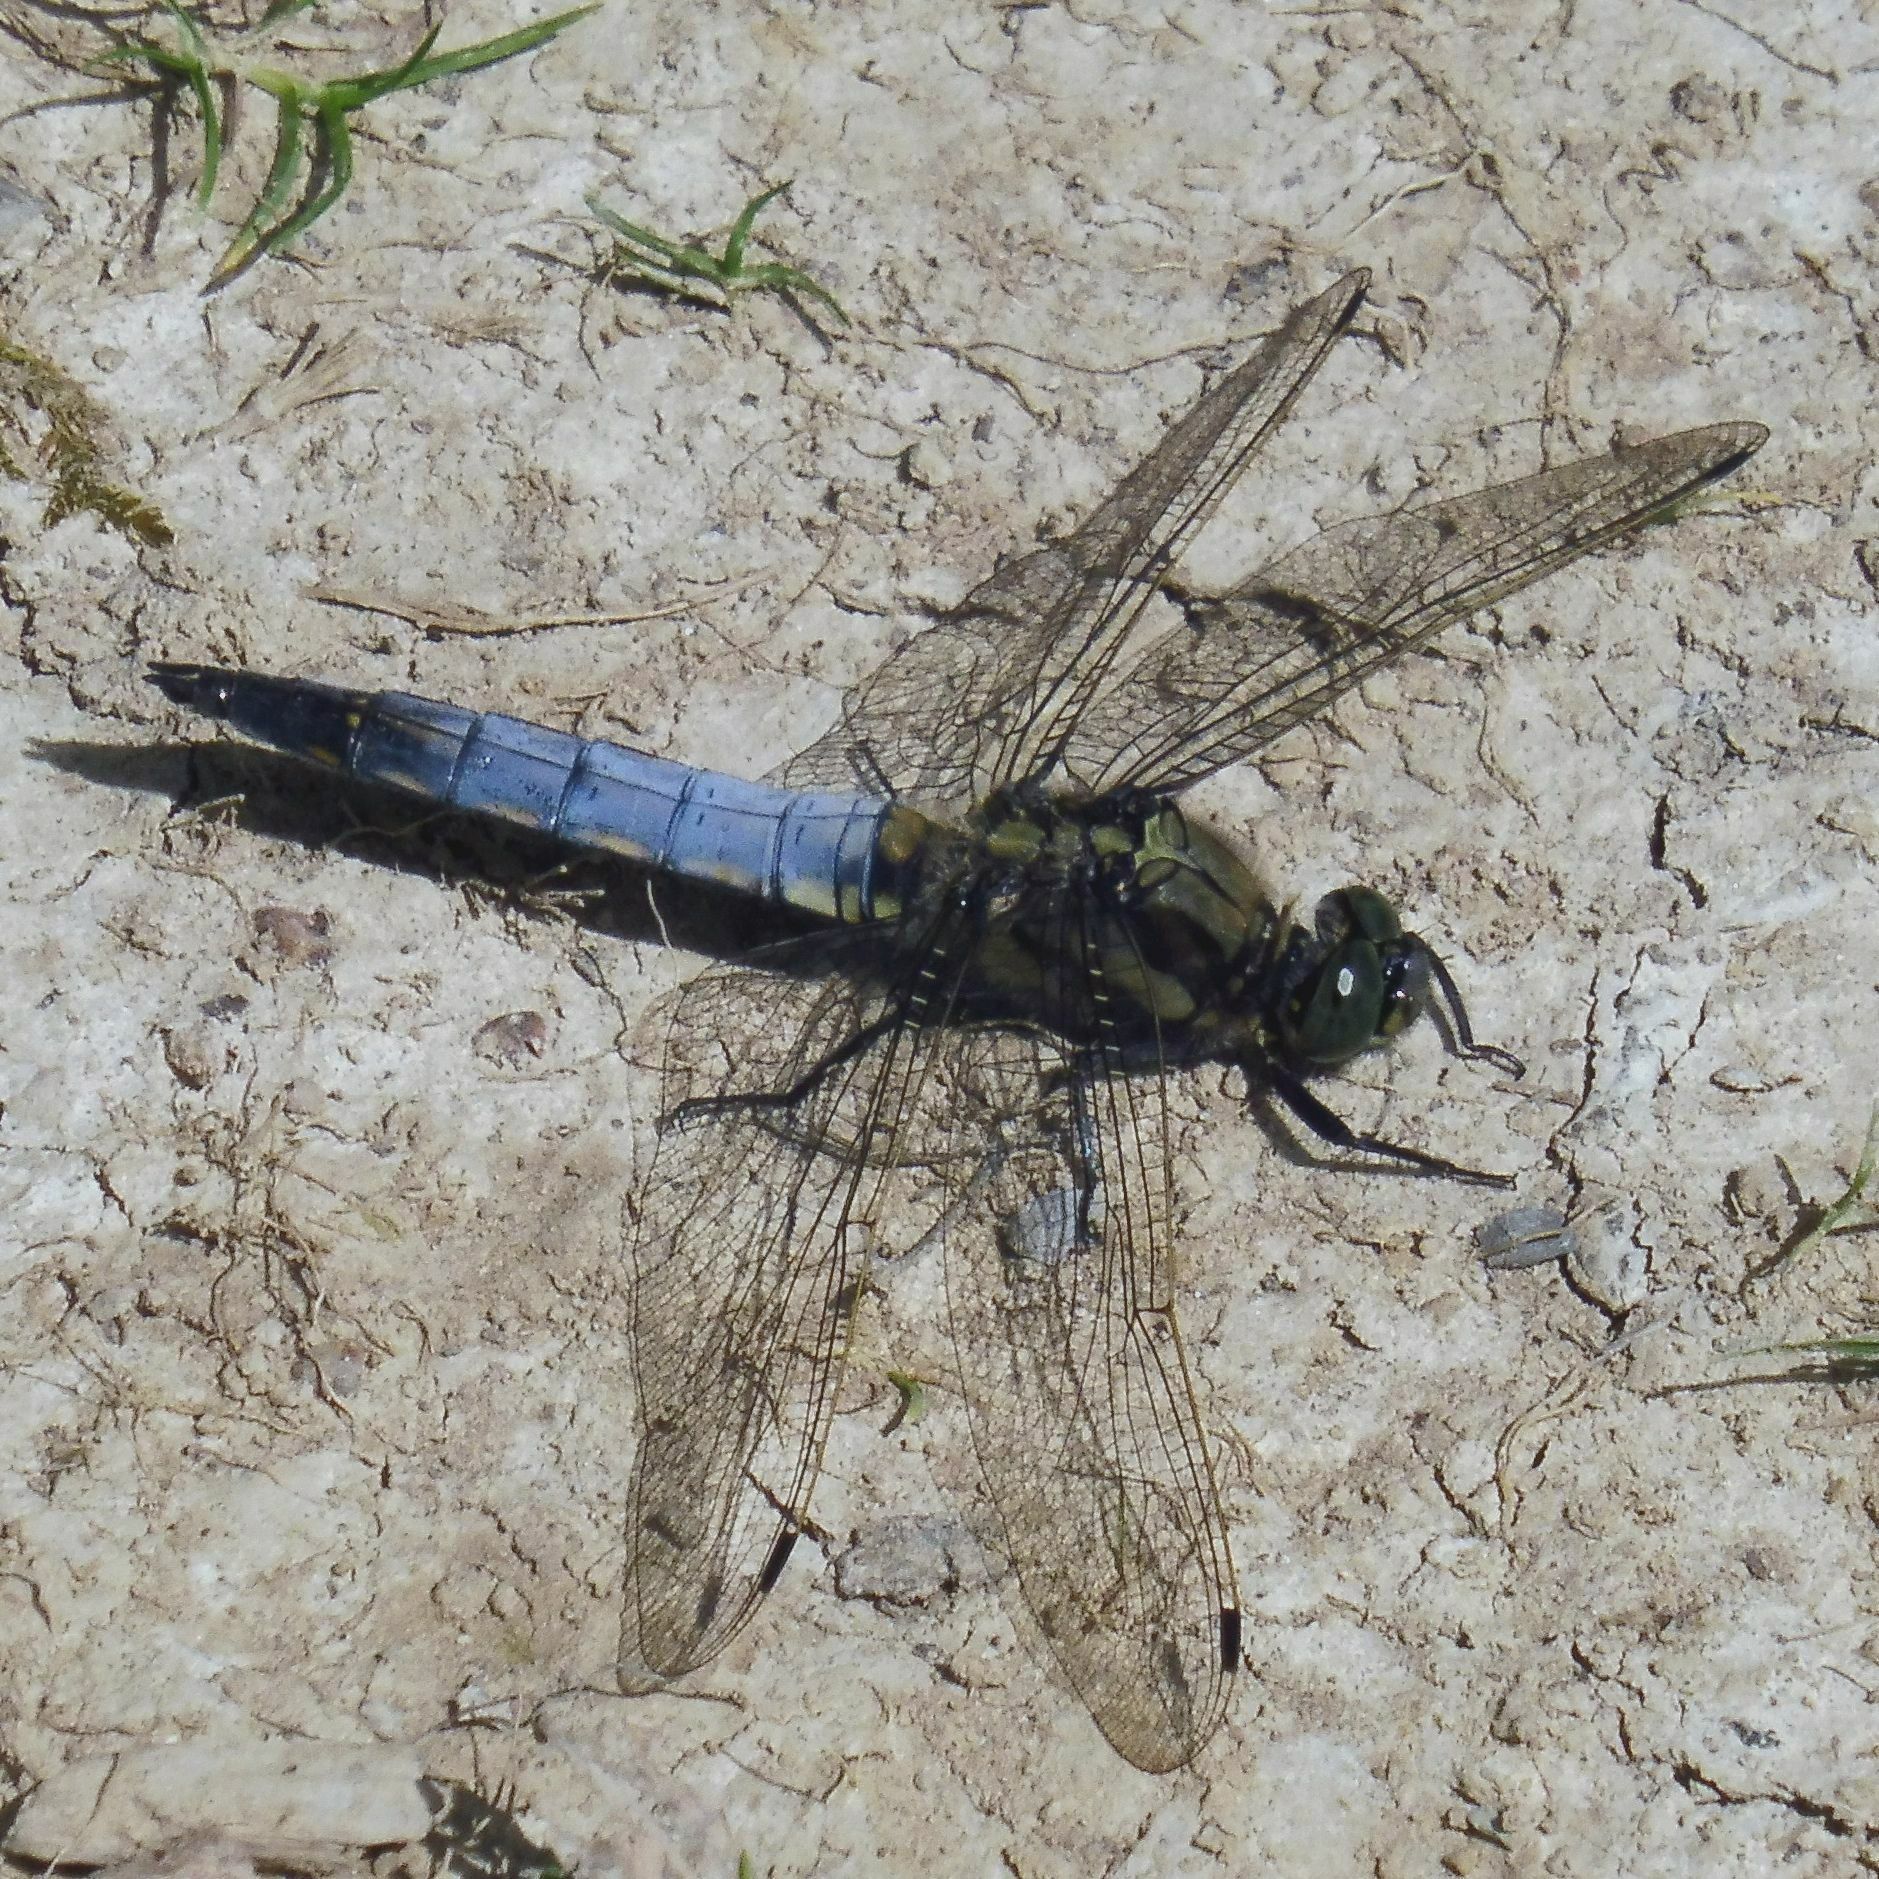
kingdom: Animalia
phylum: Arthropoda
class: Insecta
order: Odonata
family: Libellulidae
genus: Orthetrum
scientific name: Orthetrum cancellatum
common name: Black-tailed skimmer
